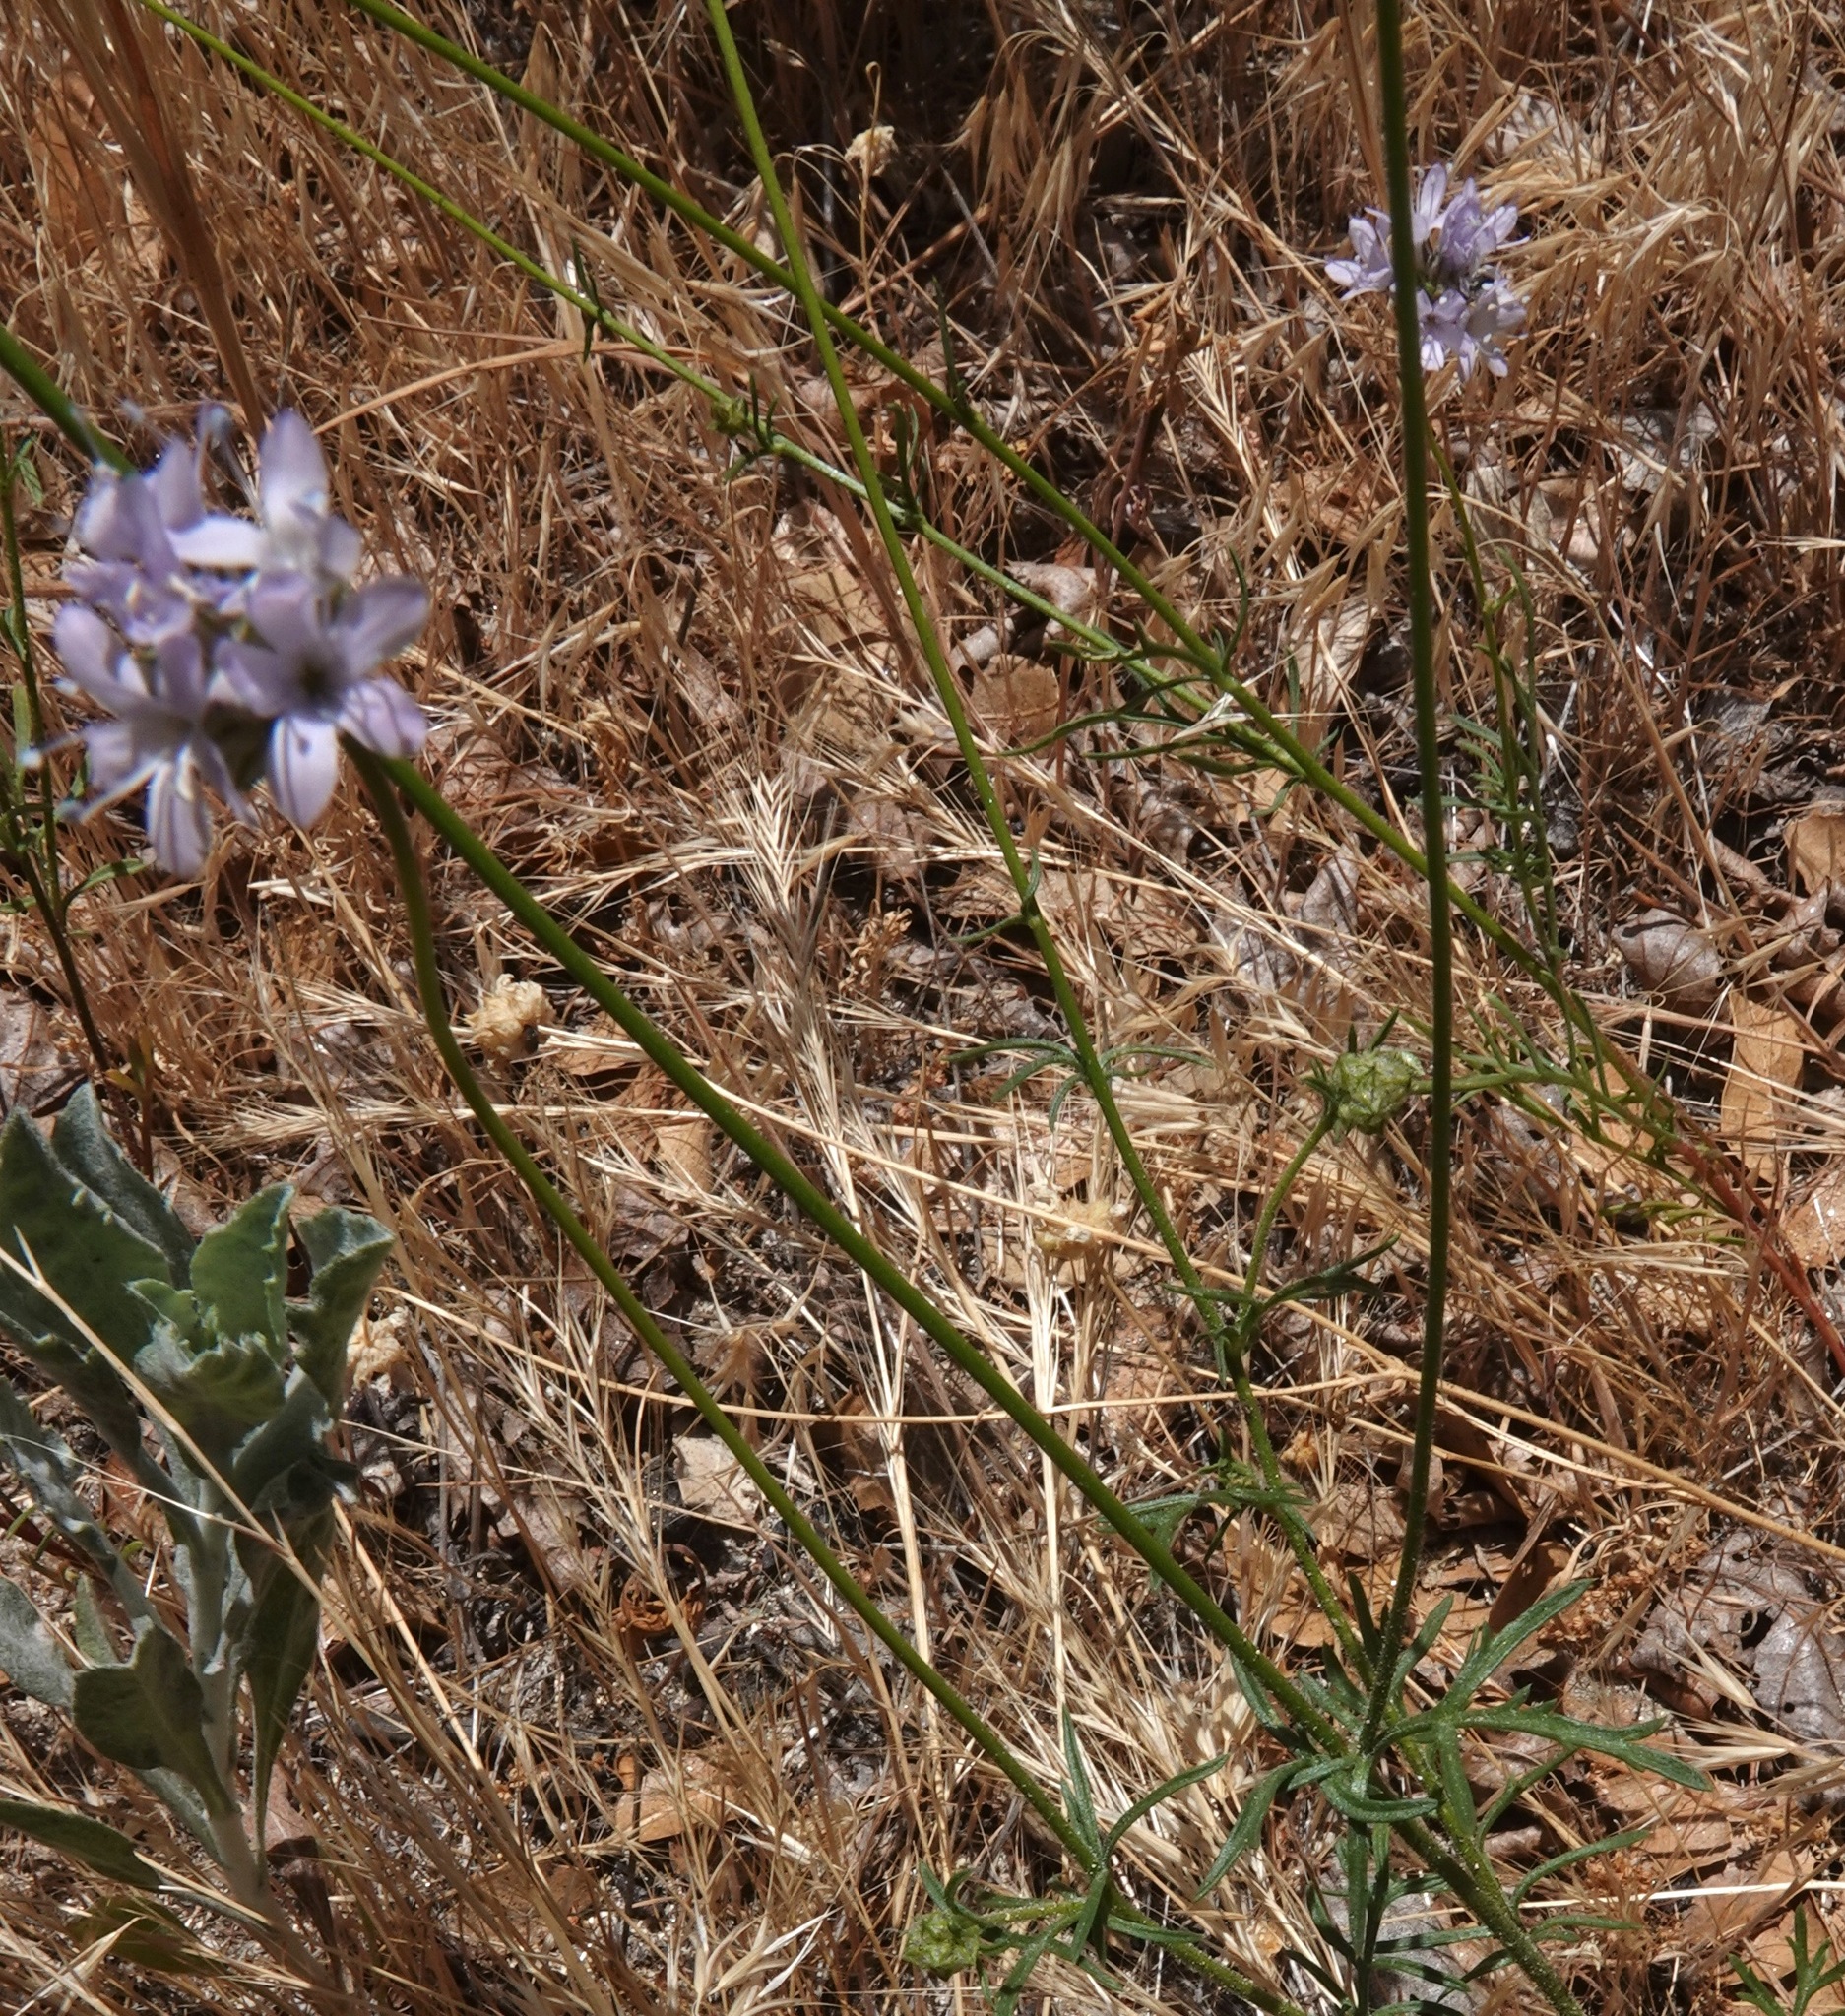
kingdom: Plantae
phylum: Tracheophyta
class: Magnoliopsida
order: Ericales
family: Polemoniaceae
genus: Gilia
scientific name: Gilia capitata
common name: Bluehead gilia
